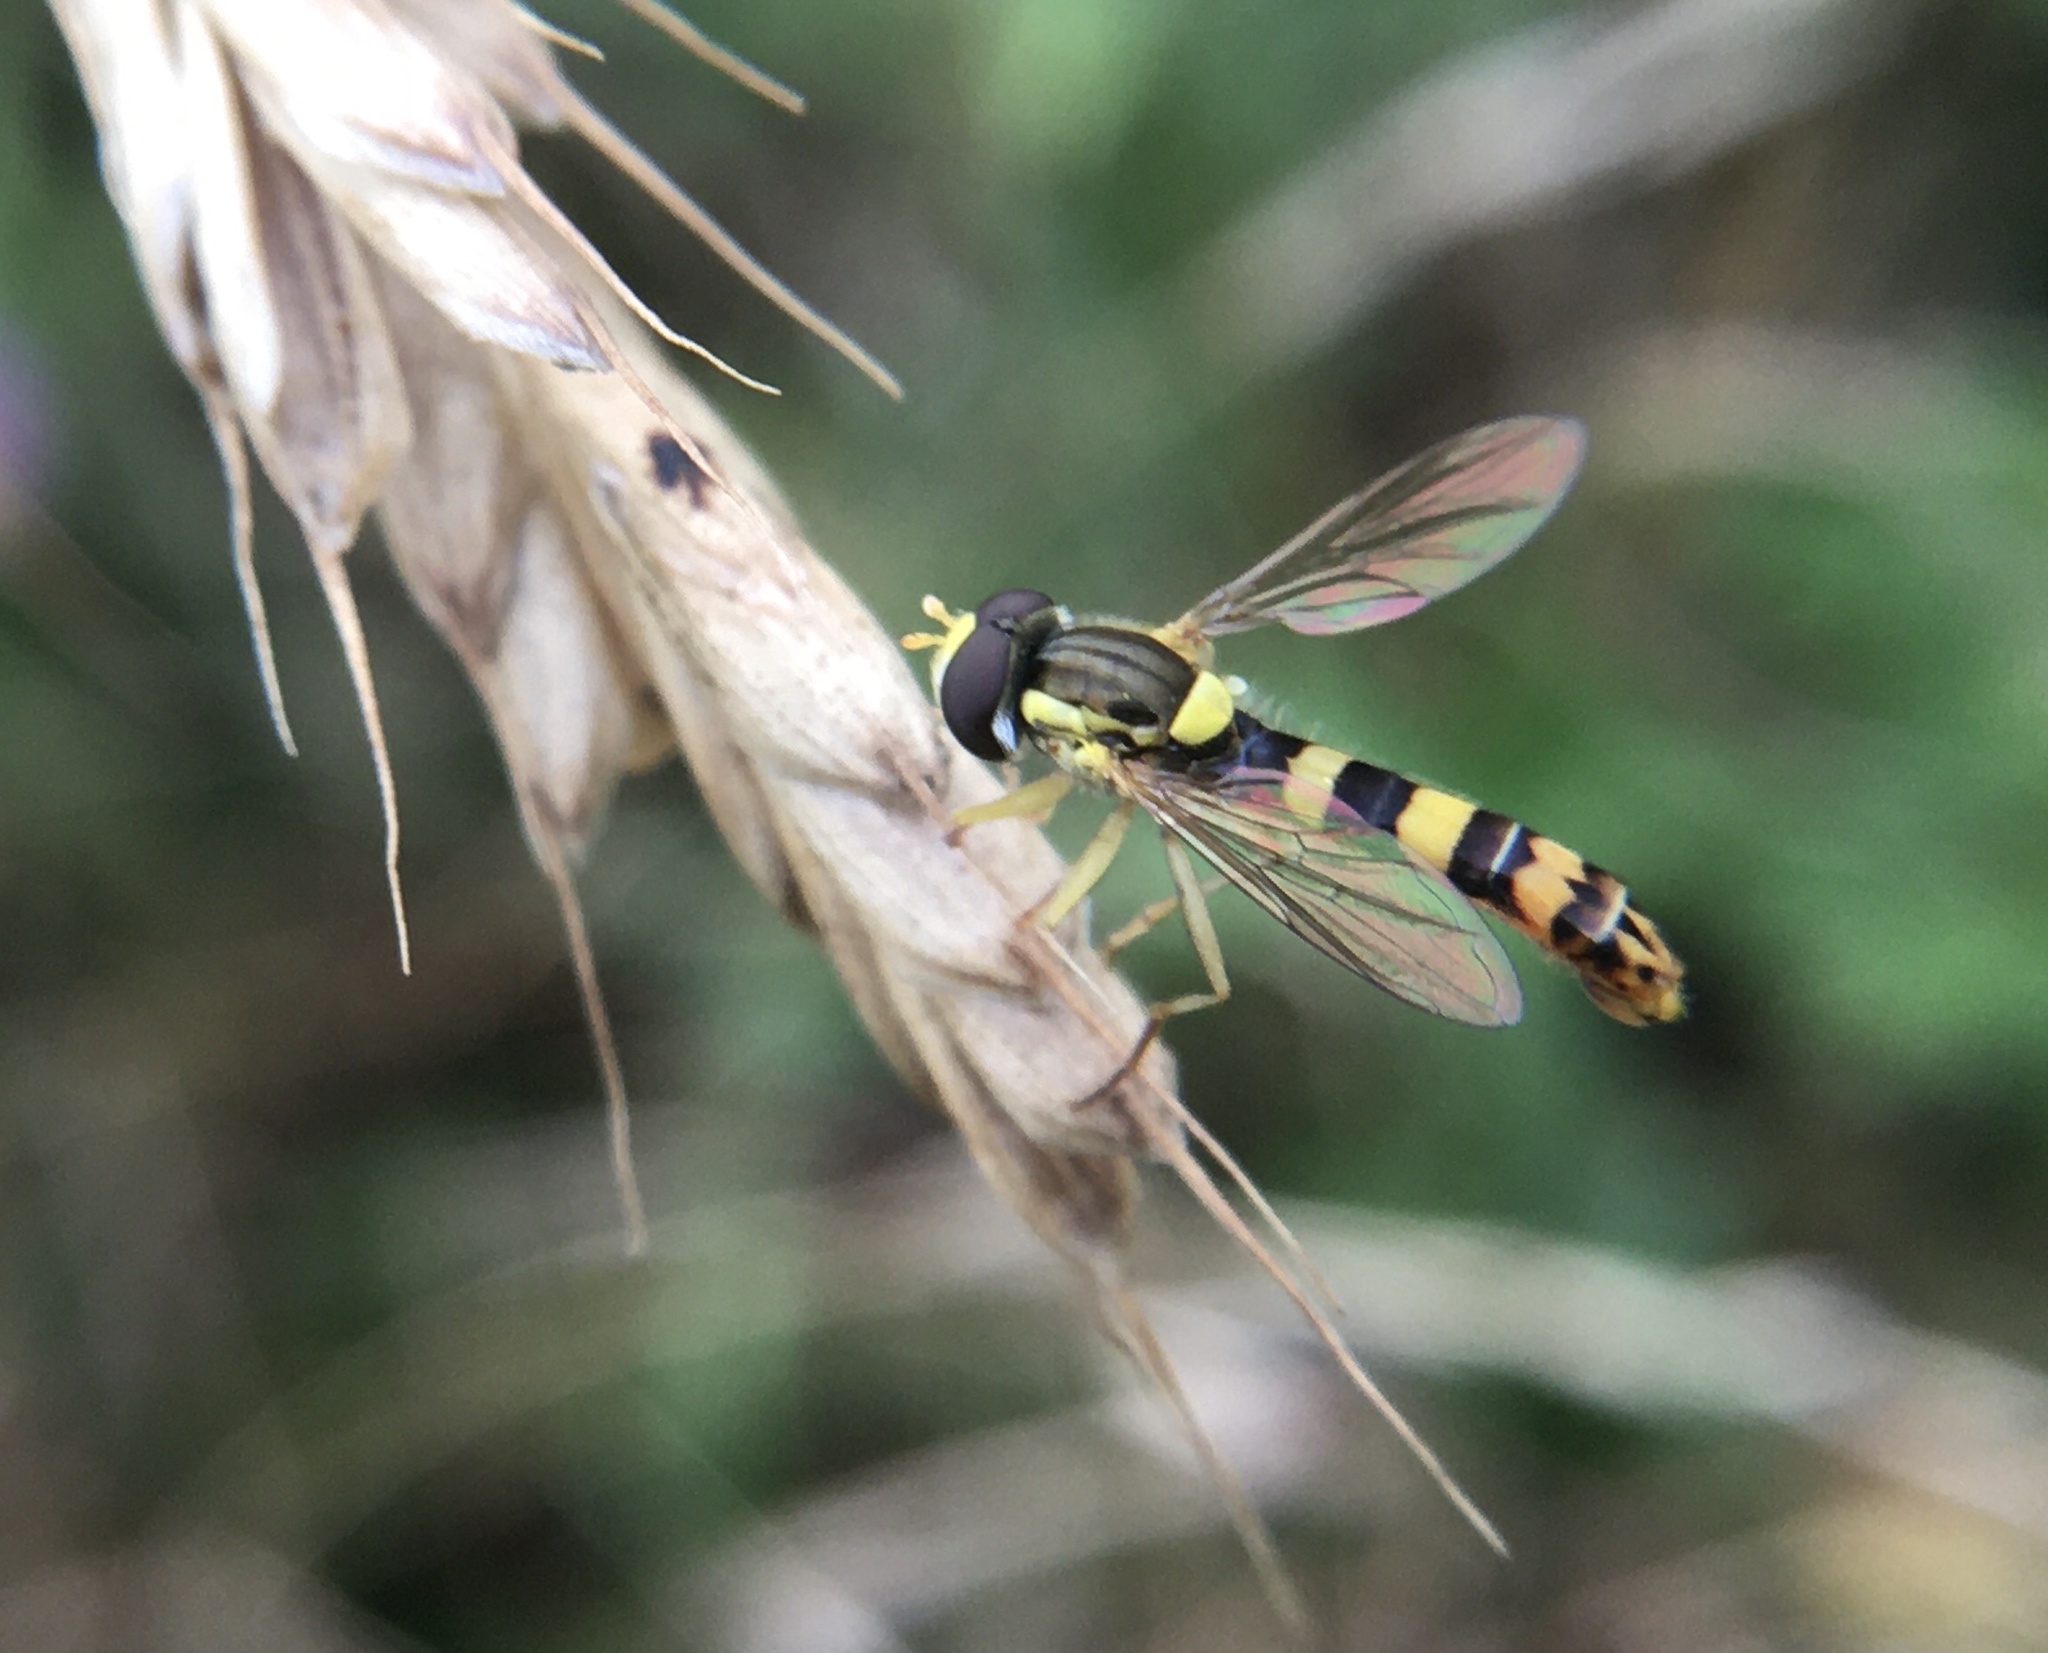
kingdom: Animalia
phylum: Arthropoda
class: Insecta
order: Diptera
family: Syrphidae
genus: Sphaerophoria
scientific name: Sphaerophoria scripta
